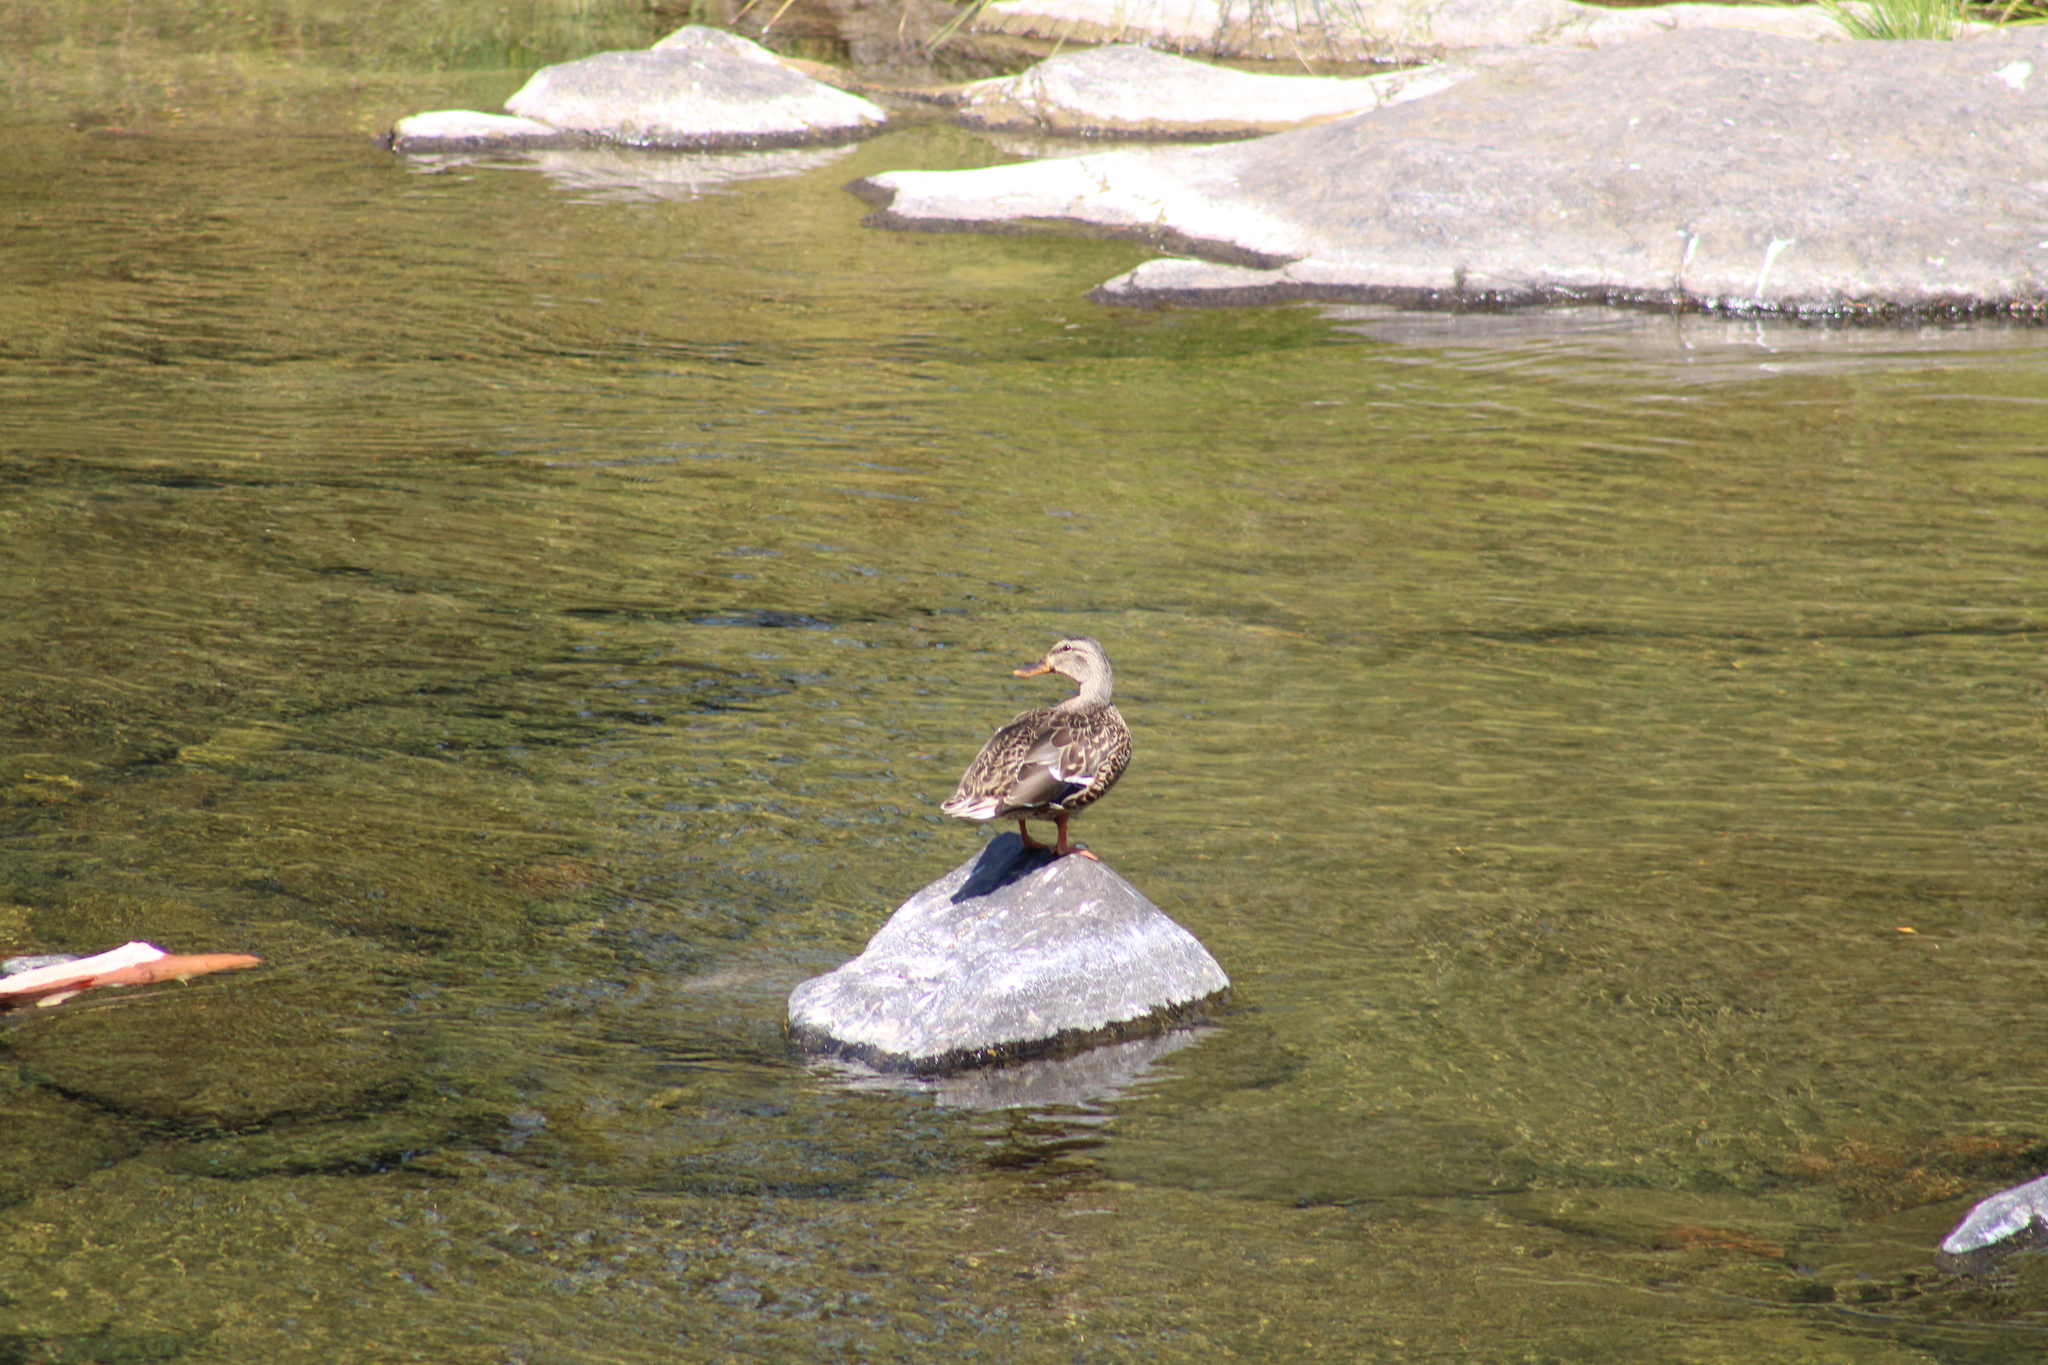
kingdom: Animalia
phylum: Chordata
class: Aves
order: Anseriformes
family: Anatidae
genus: Anas
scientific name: Anas platyrhynchos
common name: Mallard
